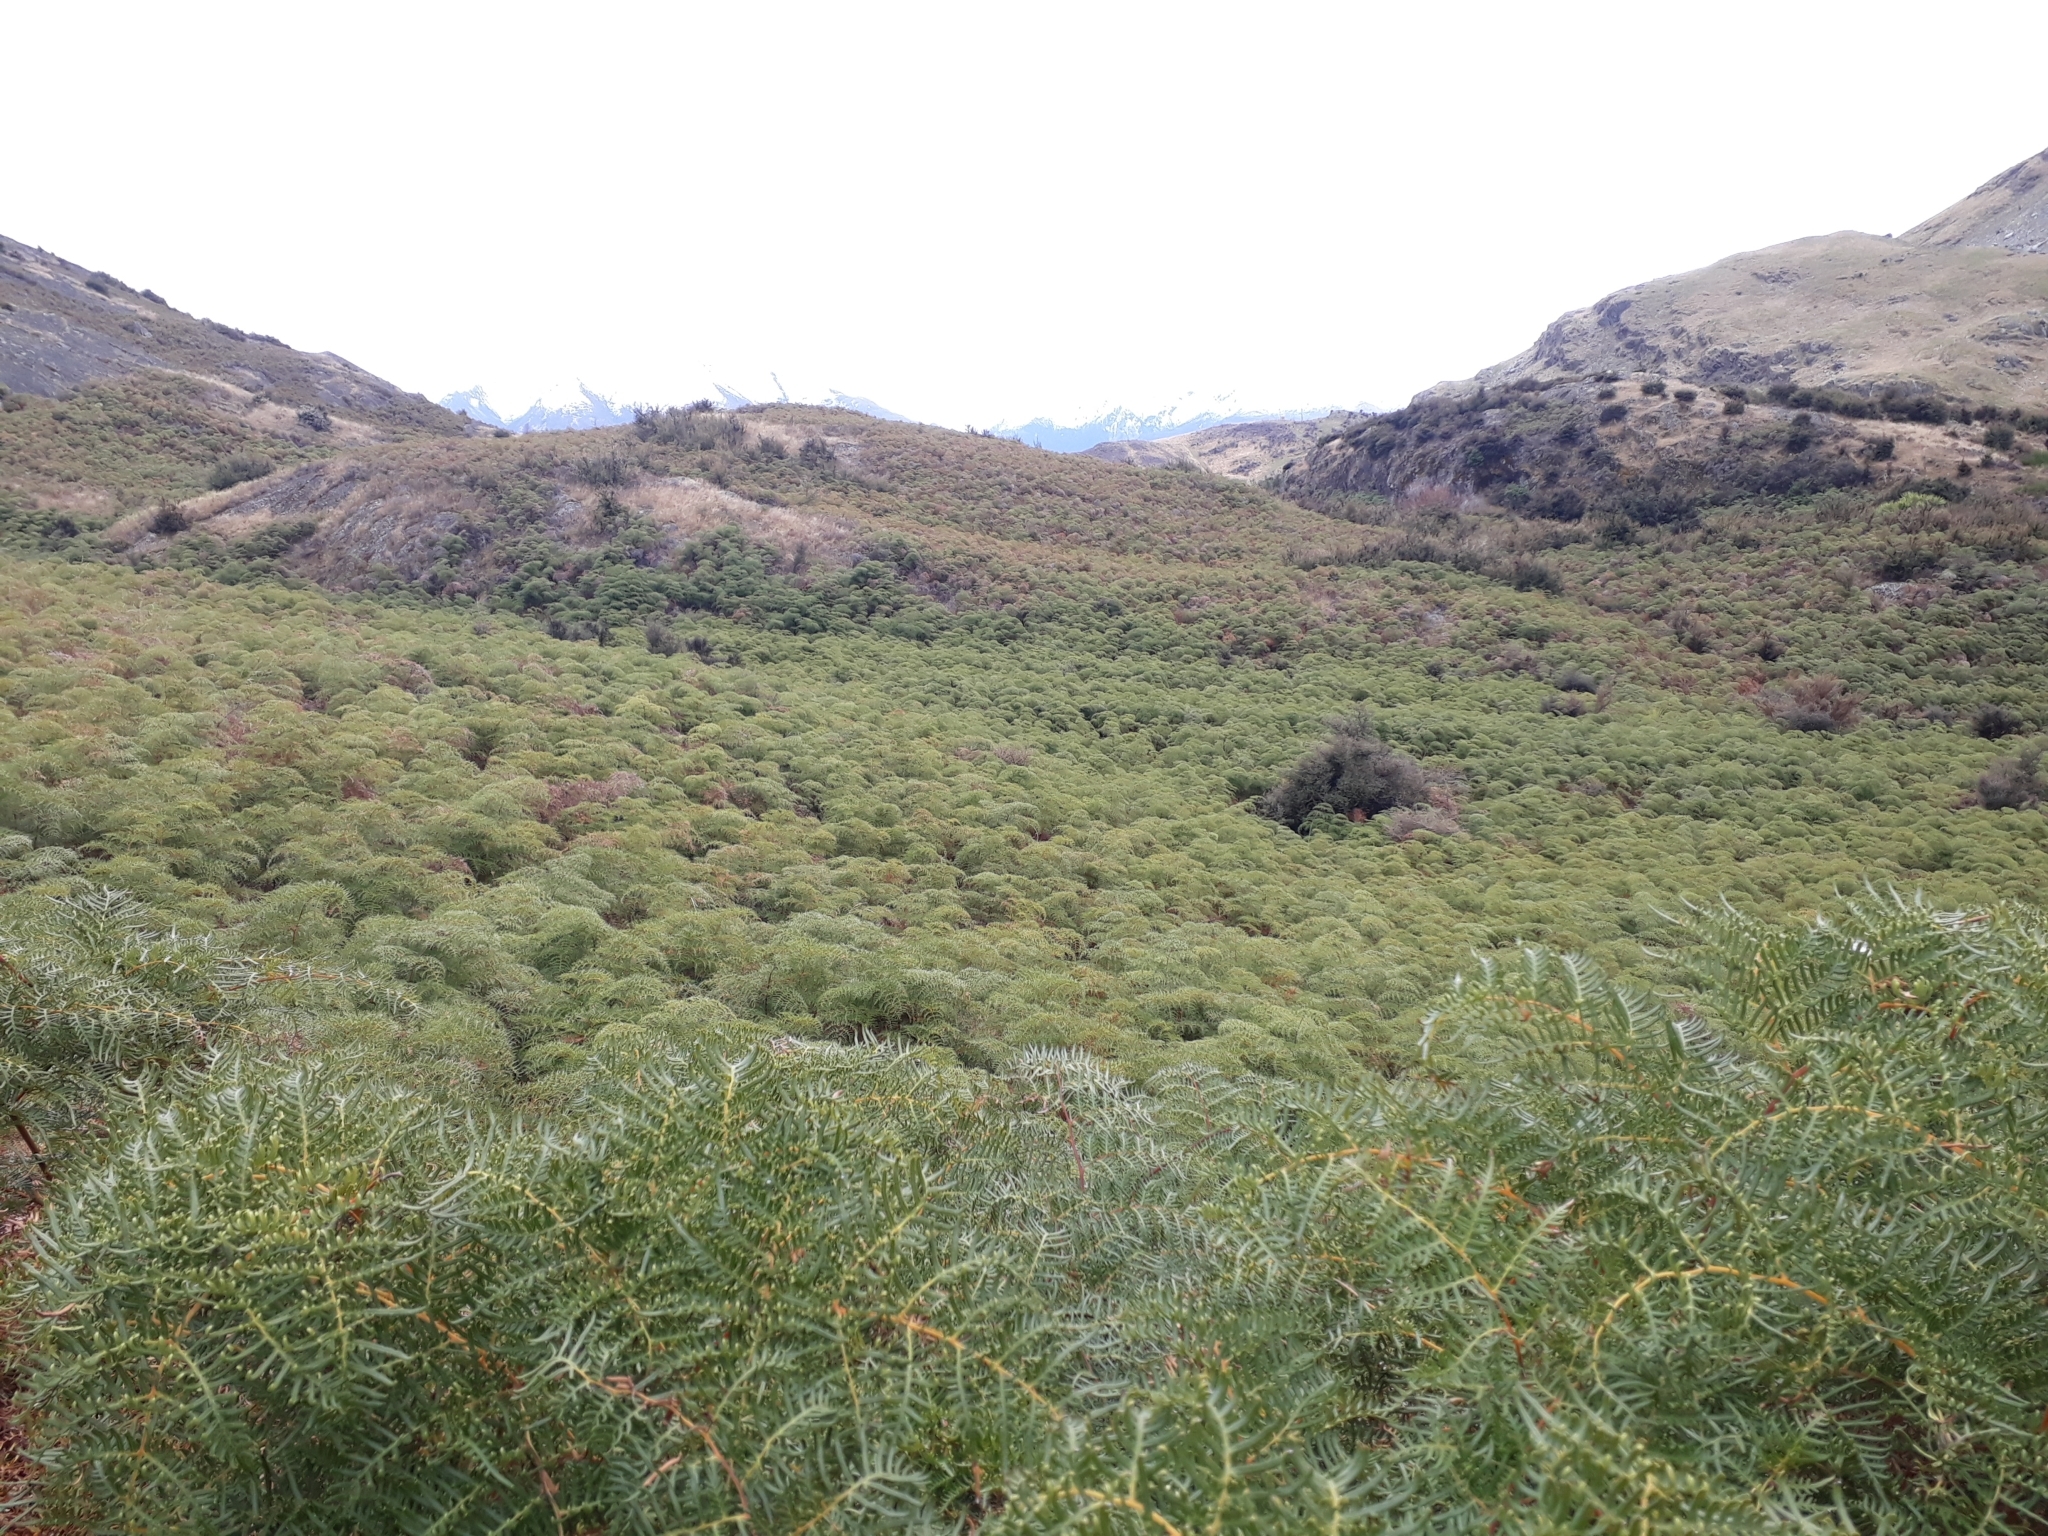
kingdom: Plantae
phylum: Tracheophyta
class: Polypodiopsida
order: Polypodiales
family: Dennstaedtiaceae
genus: Pteridium
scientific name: Pteridium esculentum
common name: Bracken fern
